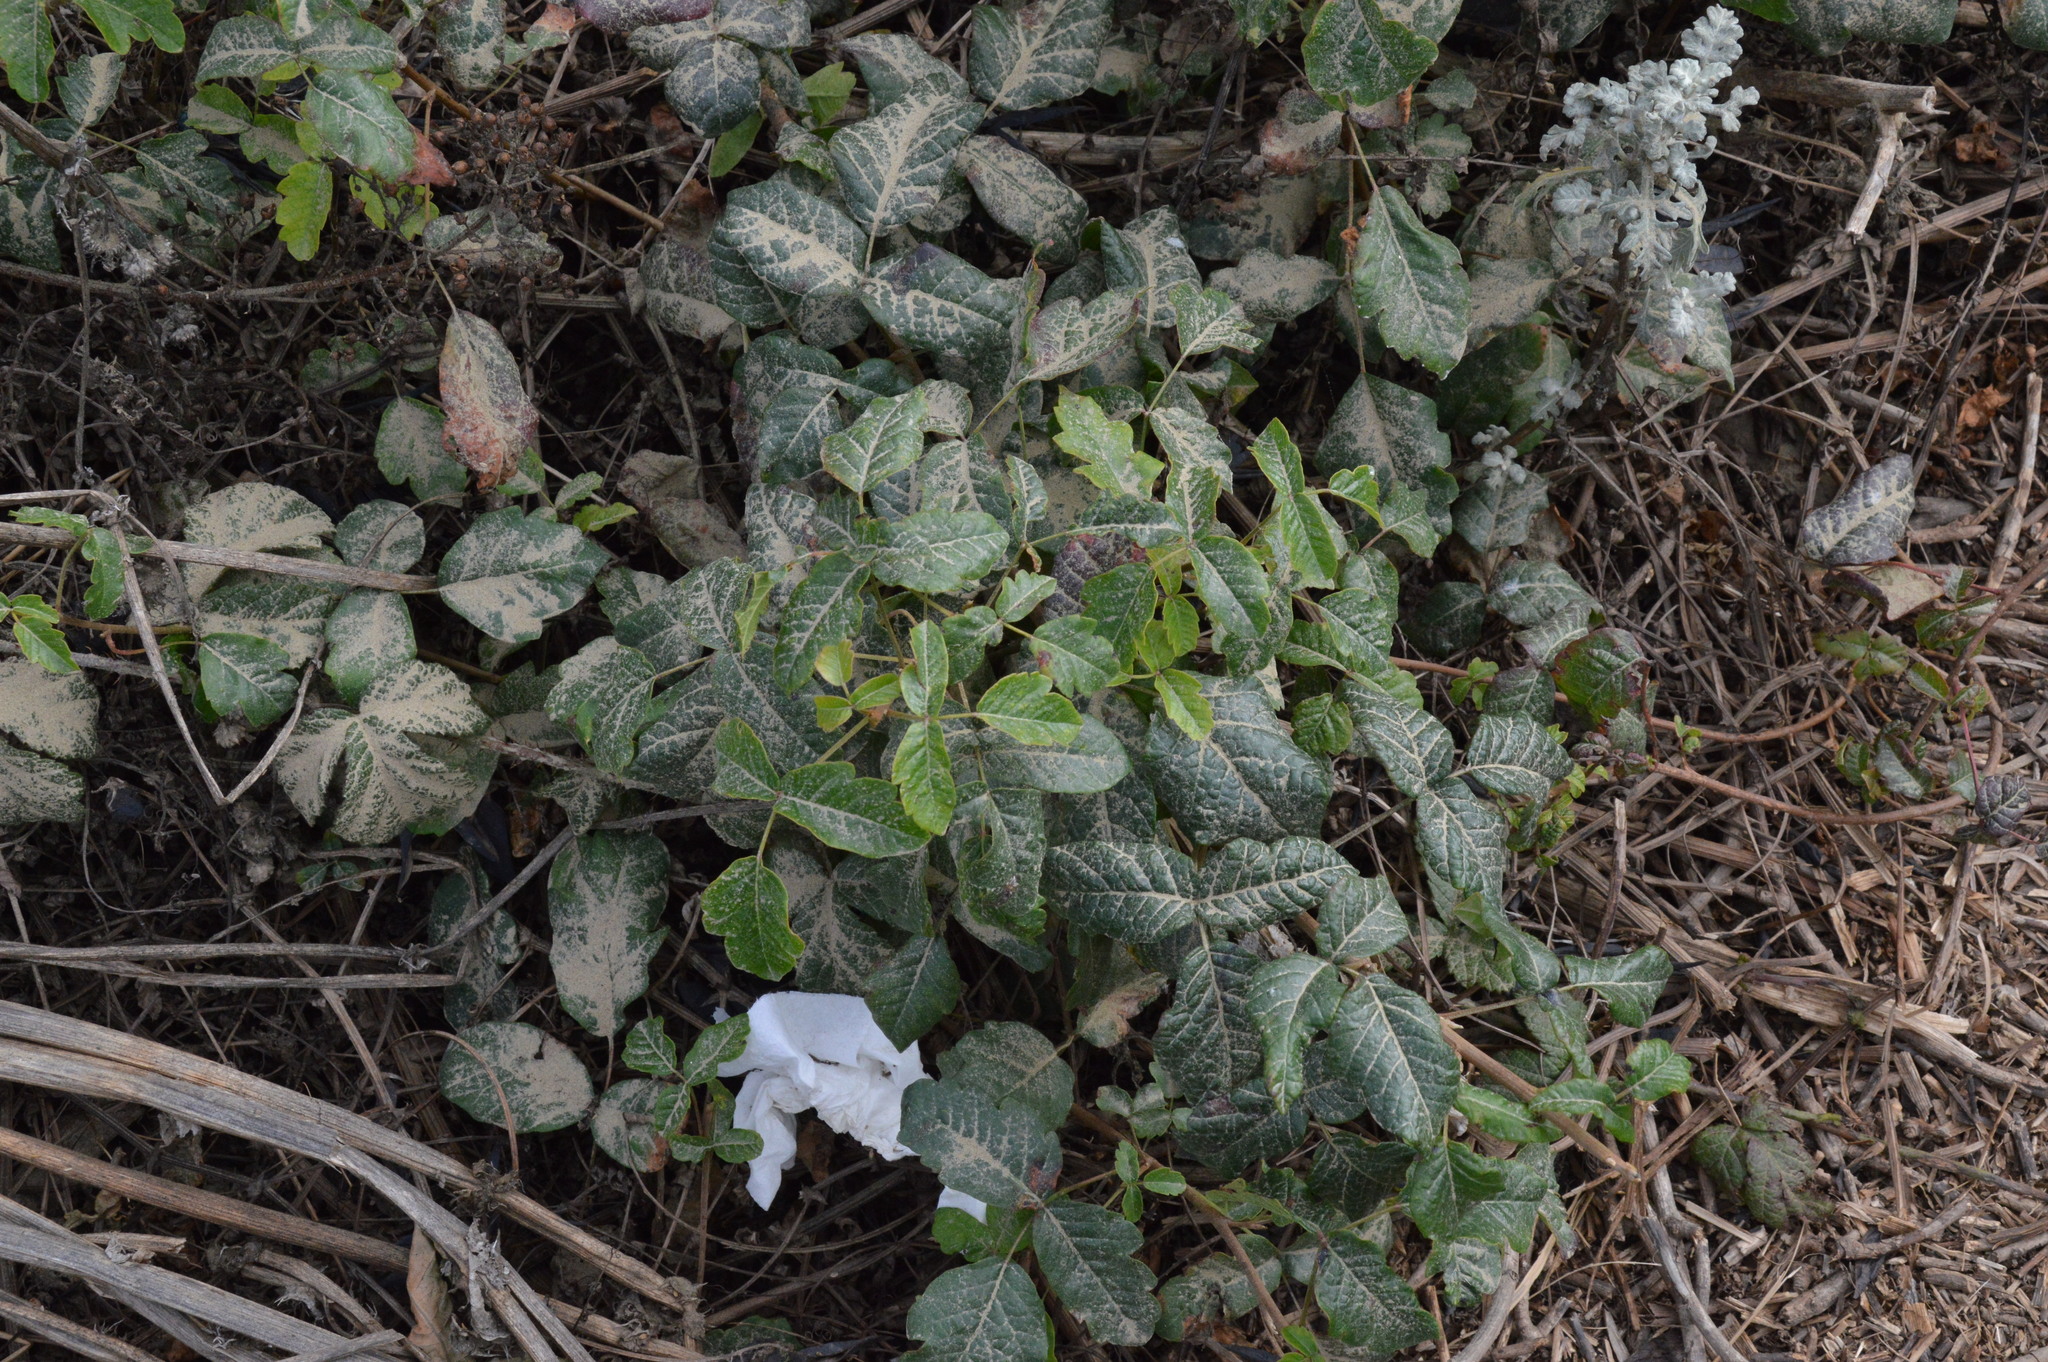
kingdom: Plantae
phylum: Tracheophyta
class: Magnoliopsida
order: Sapindales
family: Anacardiaceae
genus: Toxicodendron
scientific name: Toxicodendron diversilobum
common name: Pacific poison-oak
